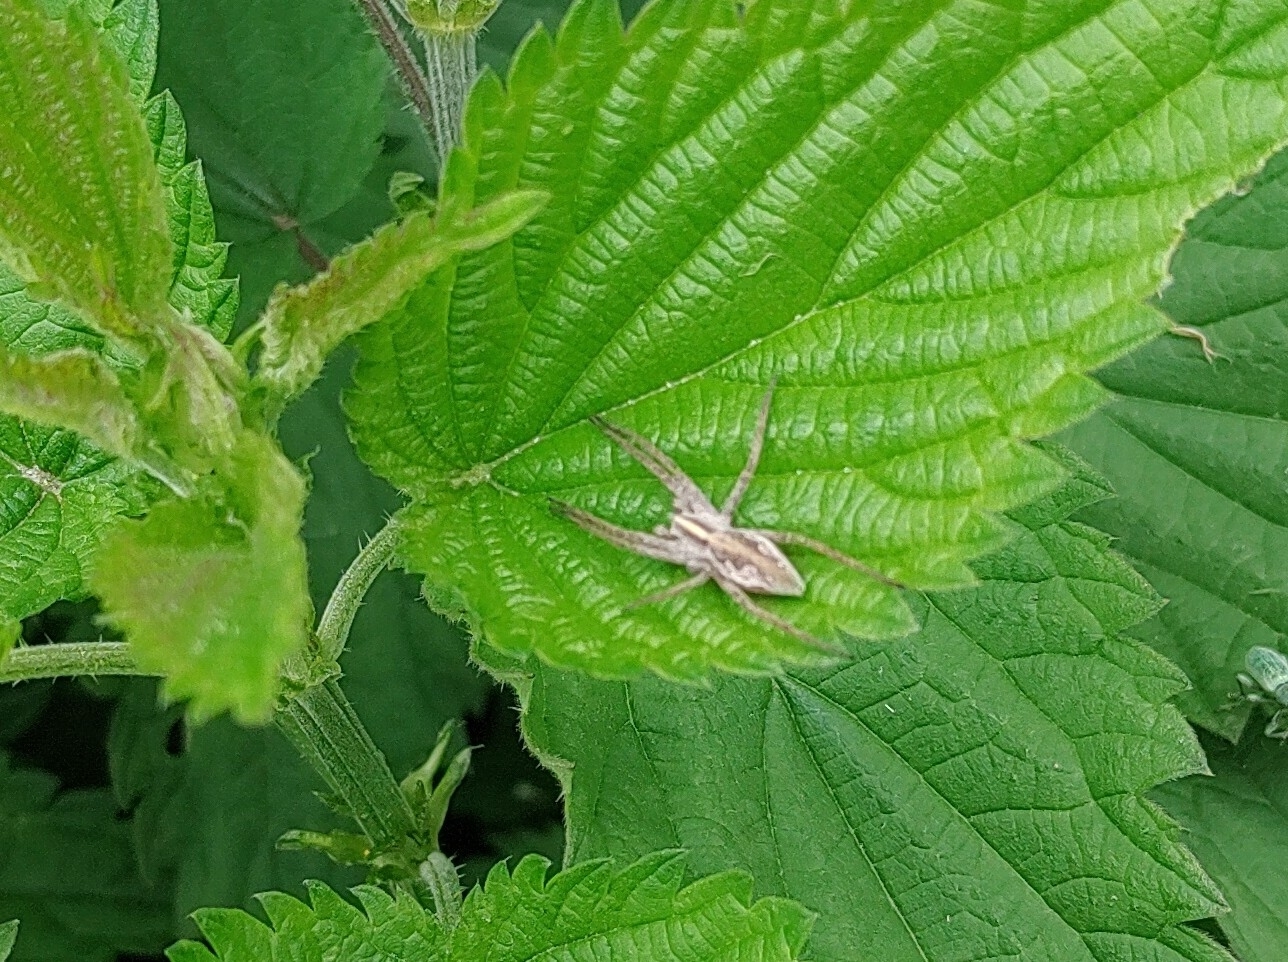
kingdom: Animalia
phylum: Arthropoda
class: Arachnida
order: Araneae
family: Pisauridae
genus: Pisaura
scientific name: Pisaura mirabilis
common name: Tent spider
